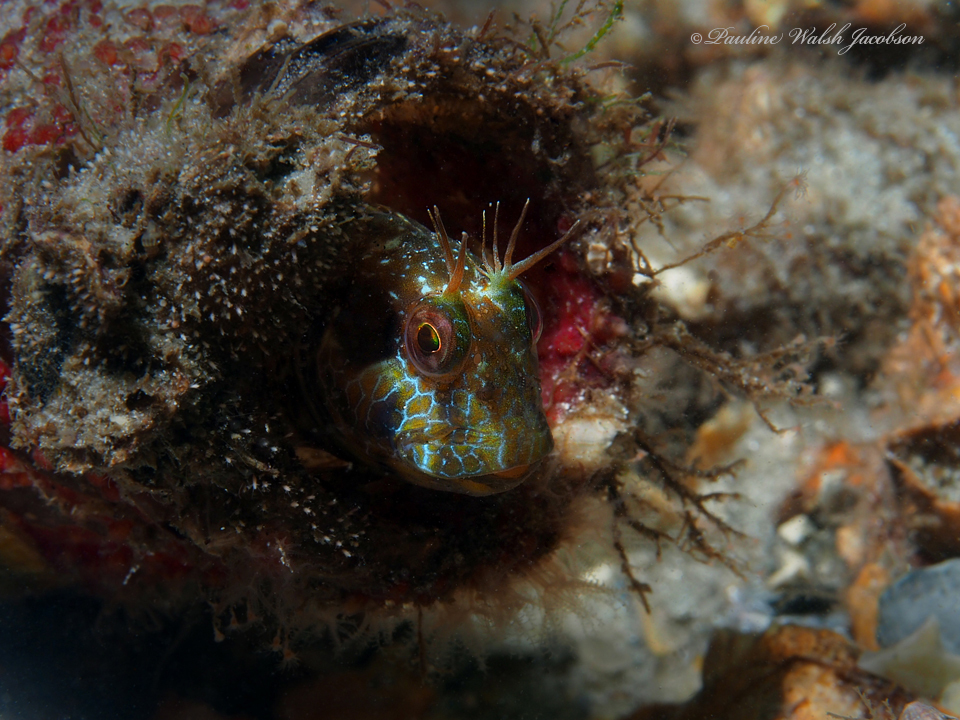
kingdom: Animalia
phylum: Chordata
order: Perciformes
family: Blenniidae
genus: Parablennius
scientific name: Parablennius marmoreus
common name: Seaweed blenny
